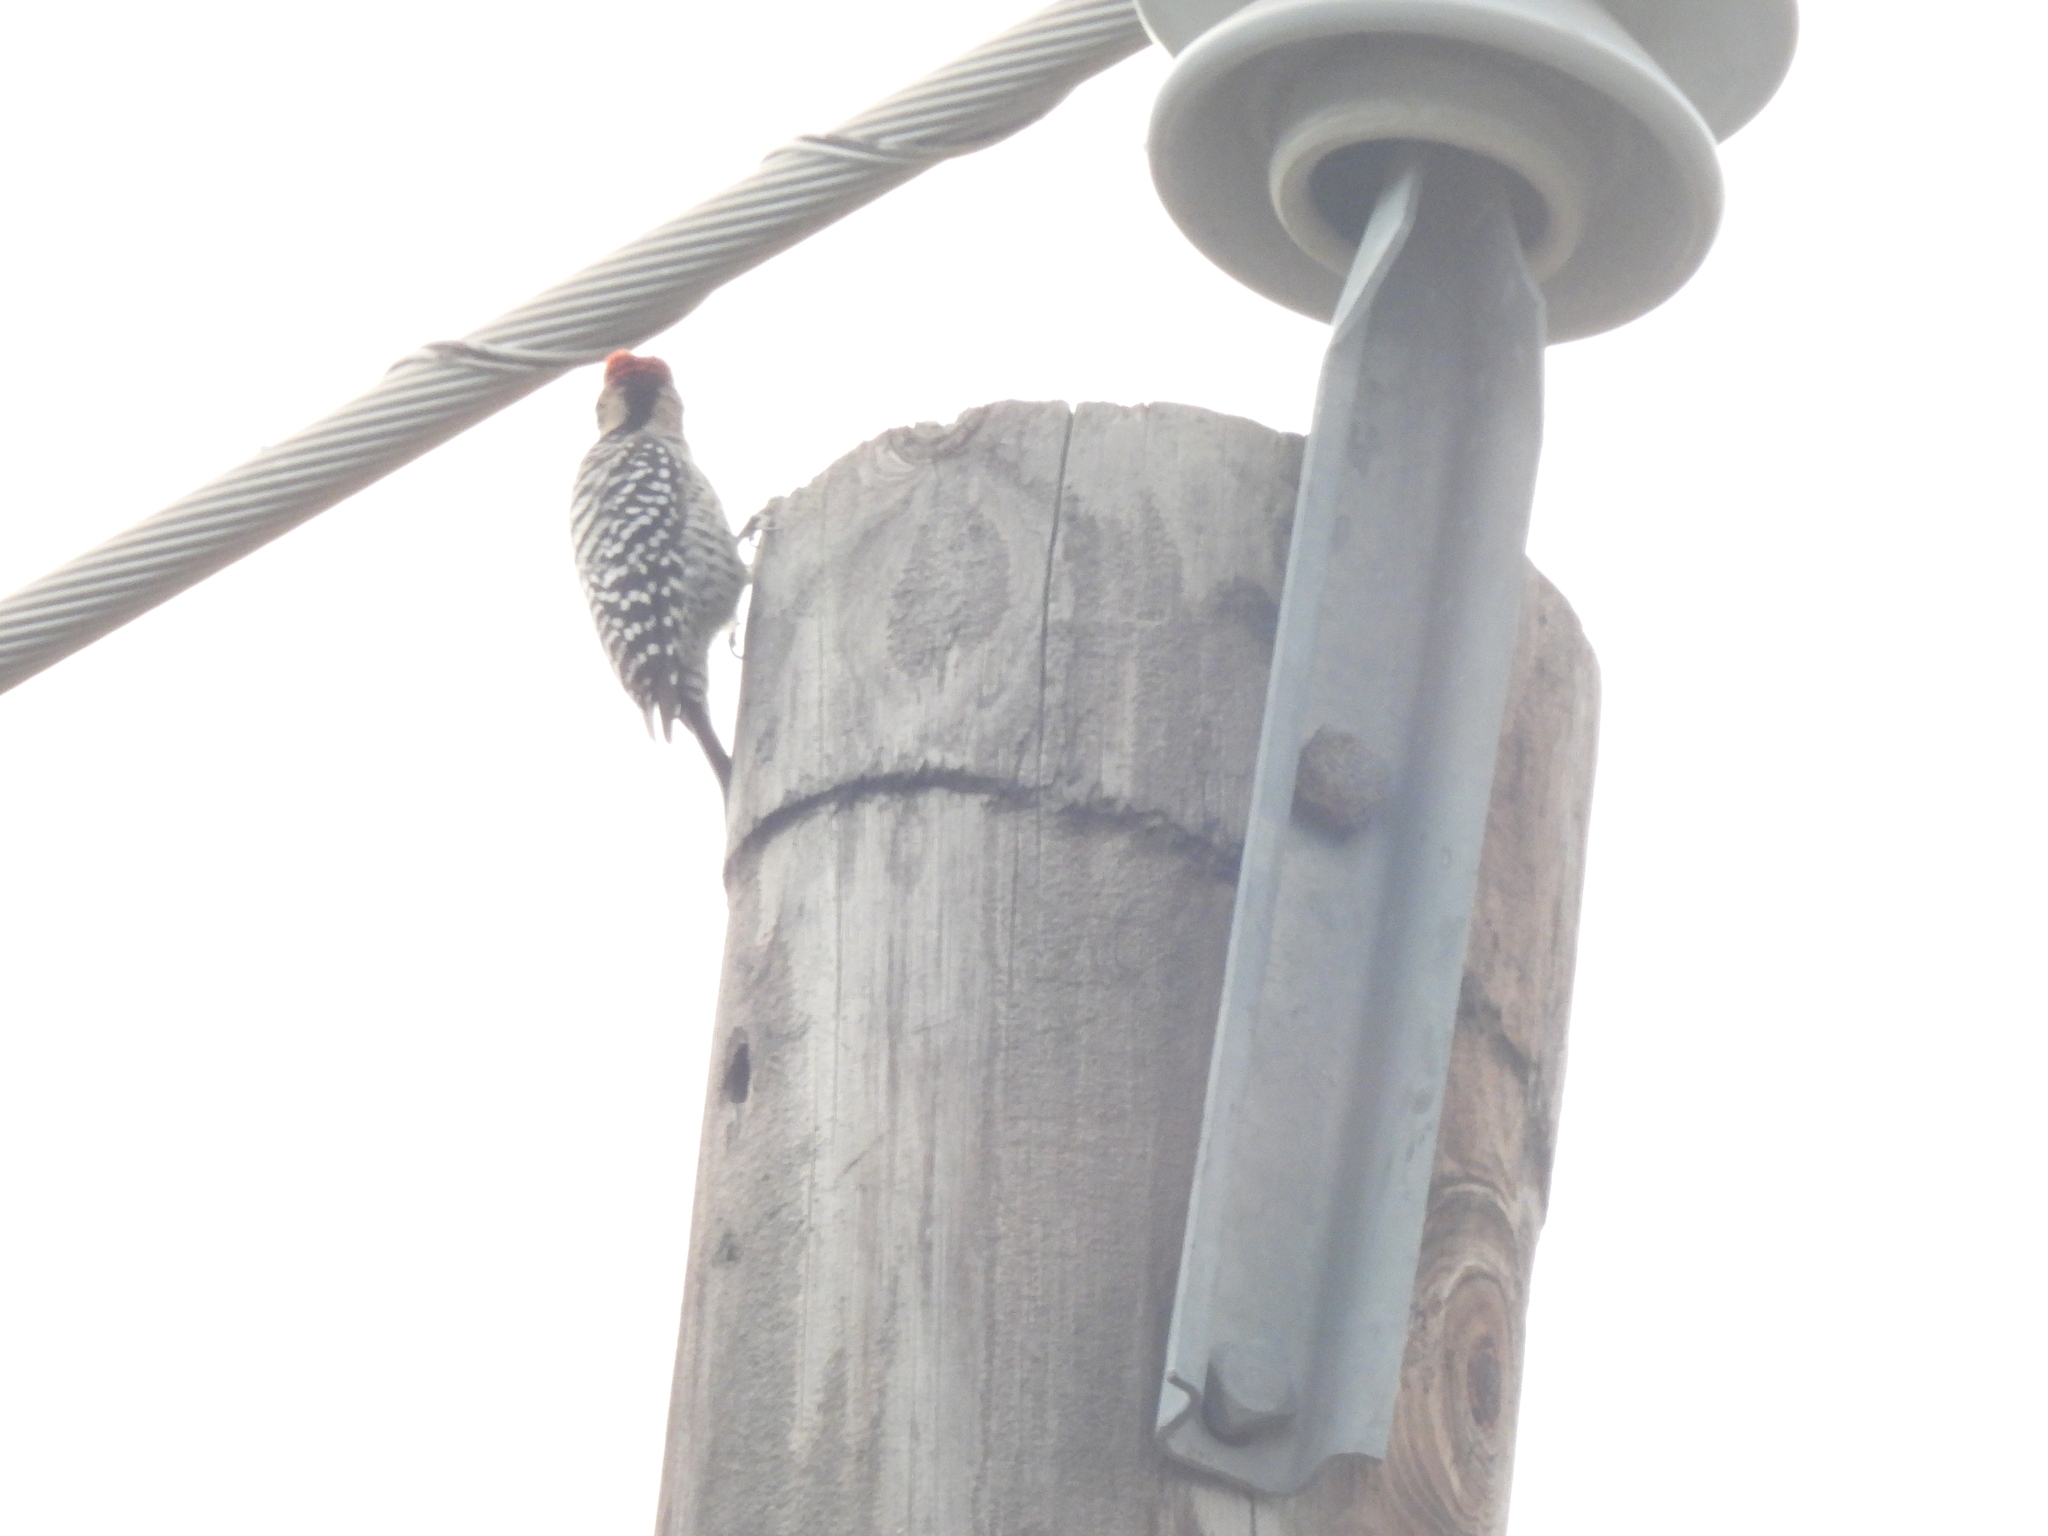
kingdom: Animalia
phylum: Chordata
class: Aves
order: Piciformes
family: Picidae
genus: Dryobates
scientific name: Dryobates scalaris
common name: Ladder-backed woodpecker
